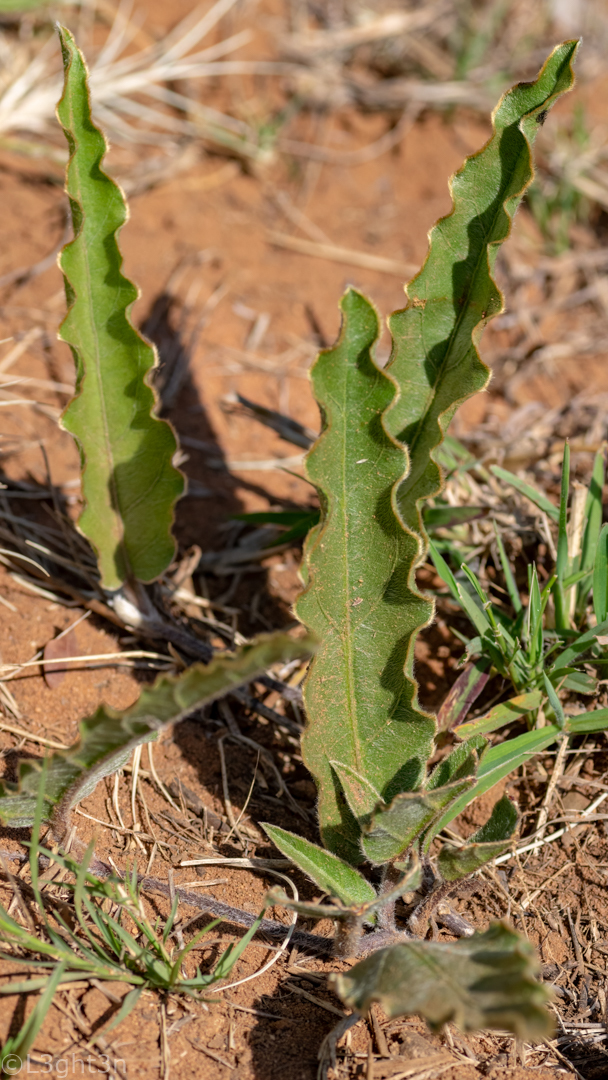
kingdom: Plantae
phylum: Tracheophyta
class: Magnoliopsida
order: Solanales
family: Convolvulaceae
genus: Ipomoea
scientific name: Ipomoea ommanneyi
